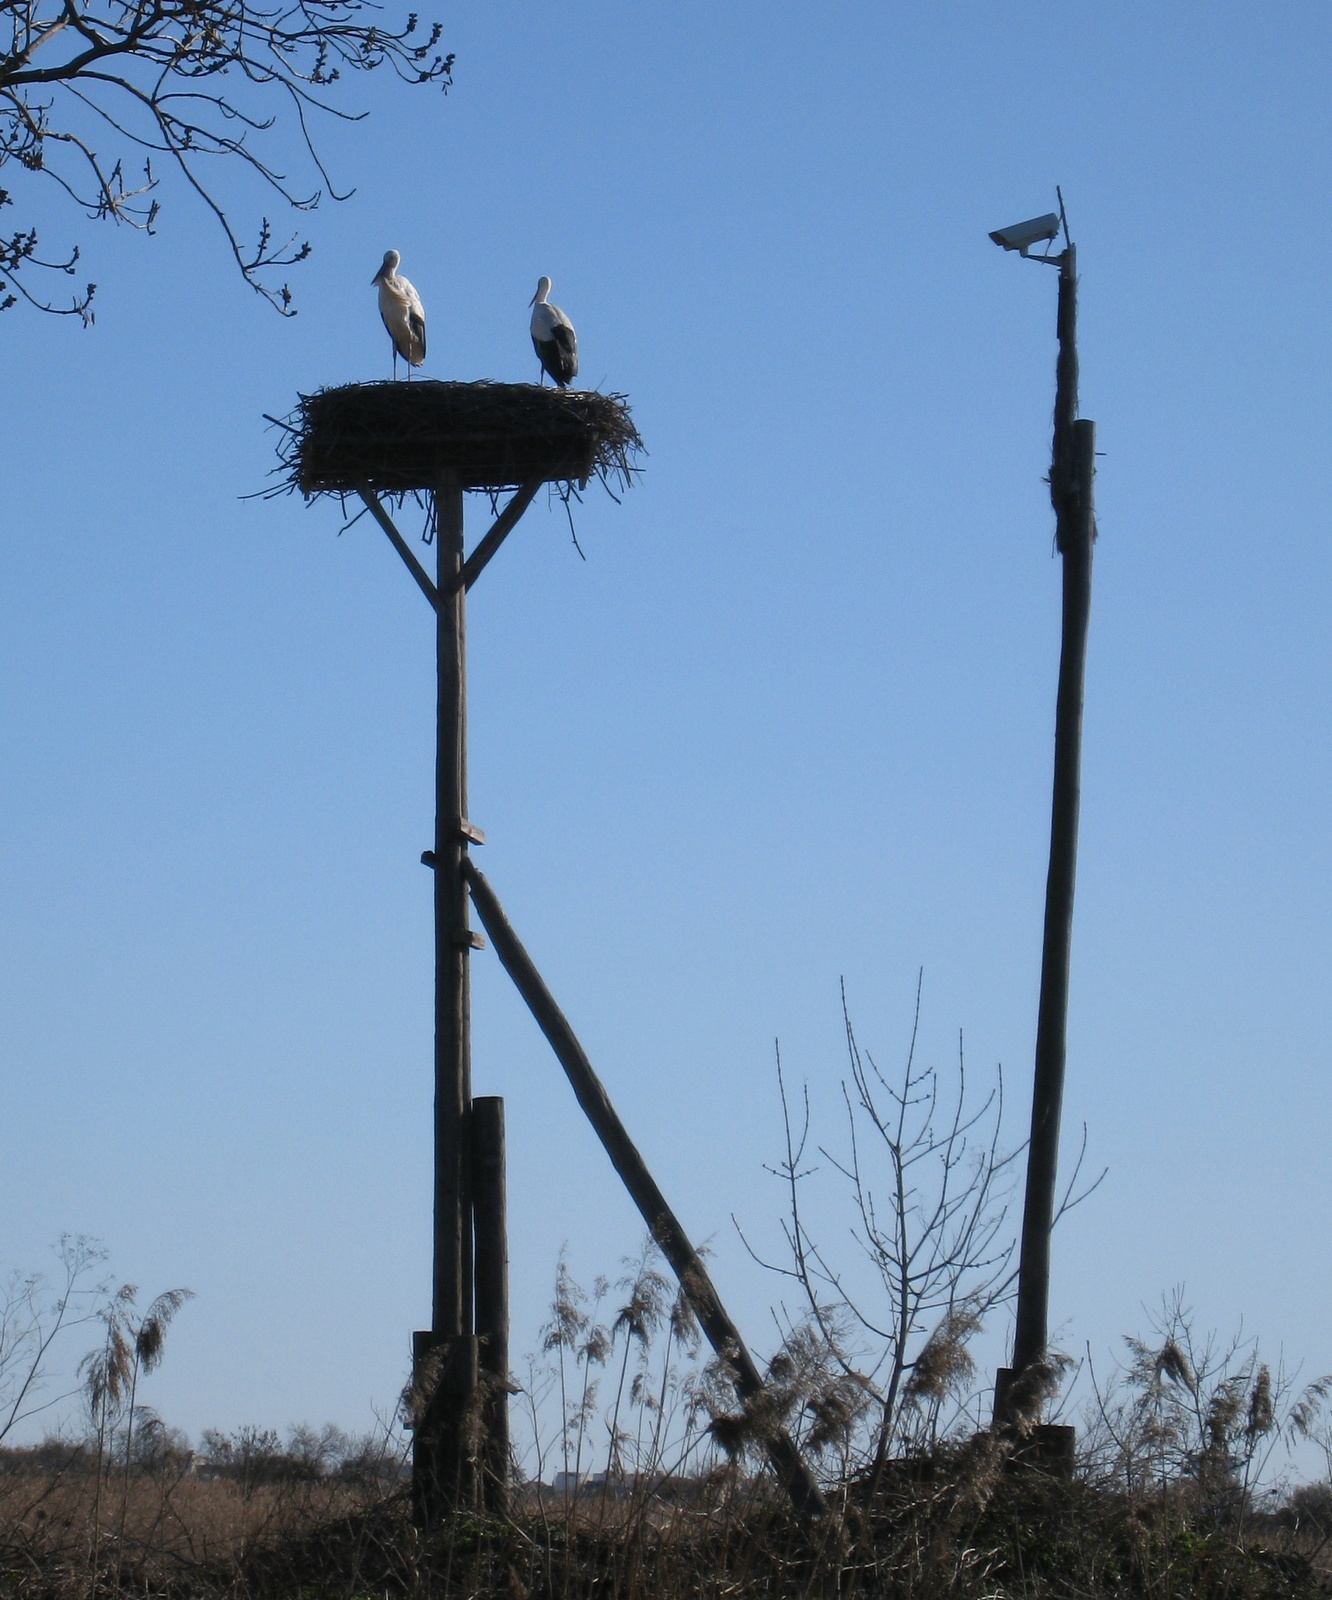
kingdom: Animalia
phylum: Chordata
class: Aves
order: Ciconiiformes
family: Ciconiidae
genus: Ciconia
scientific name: Ciconia ciconia
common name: White stork
